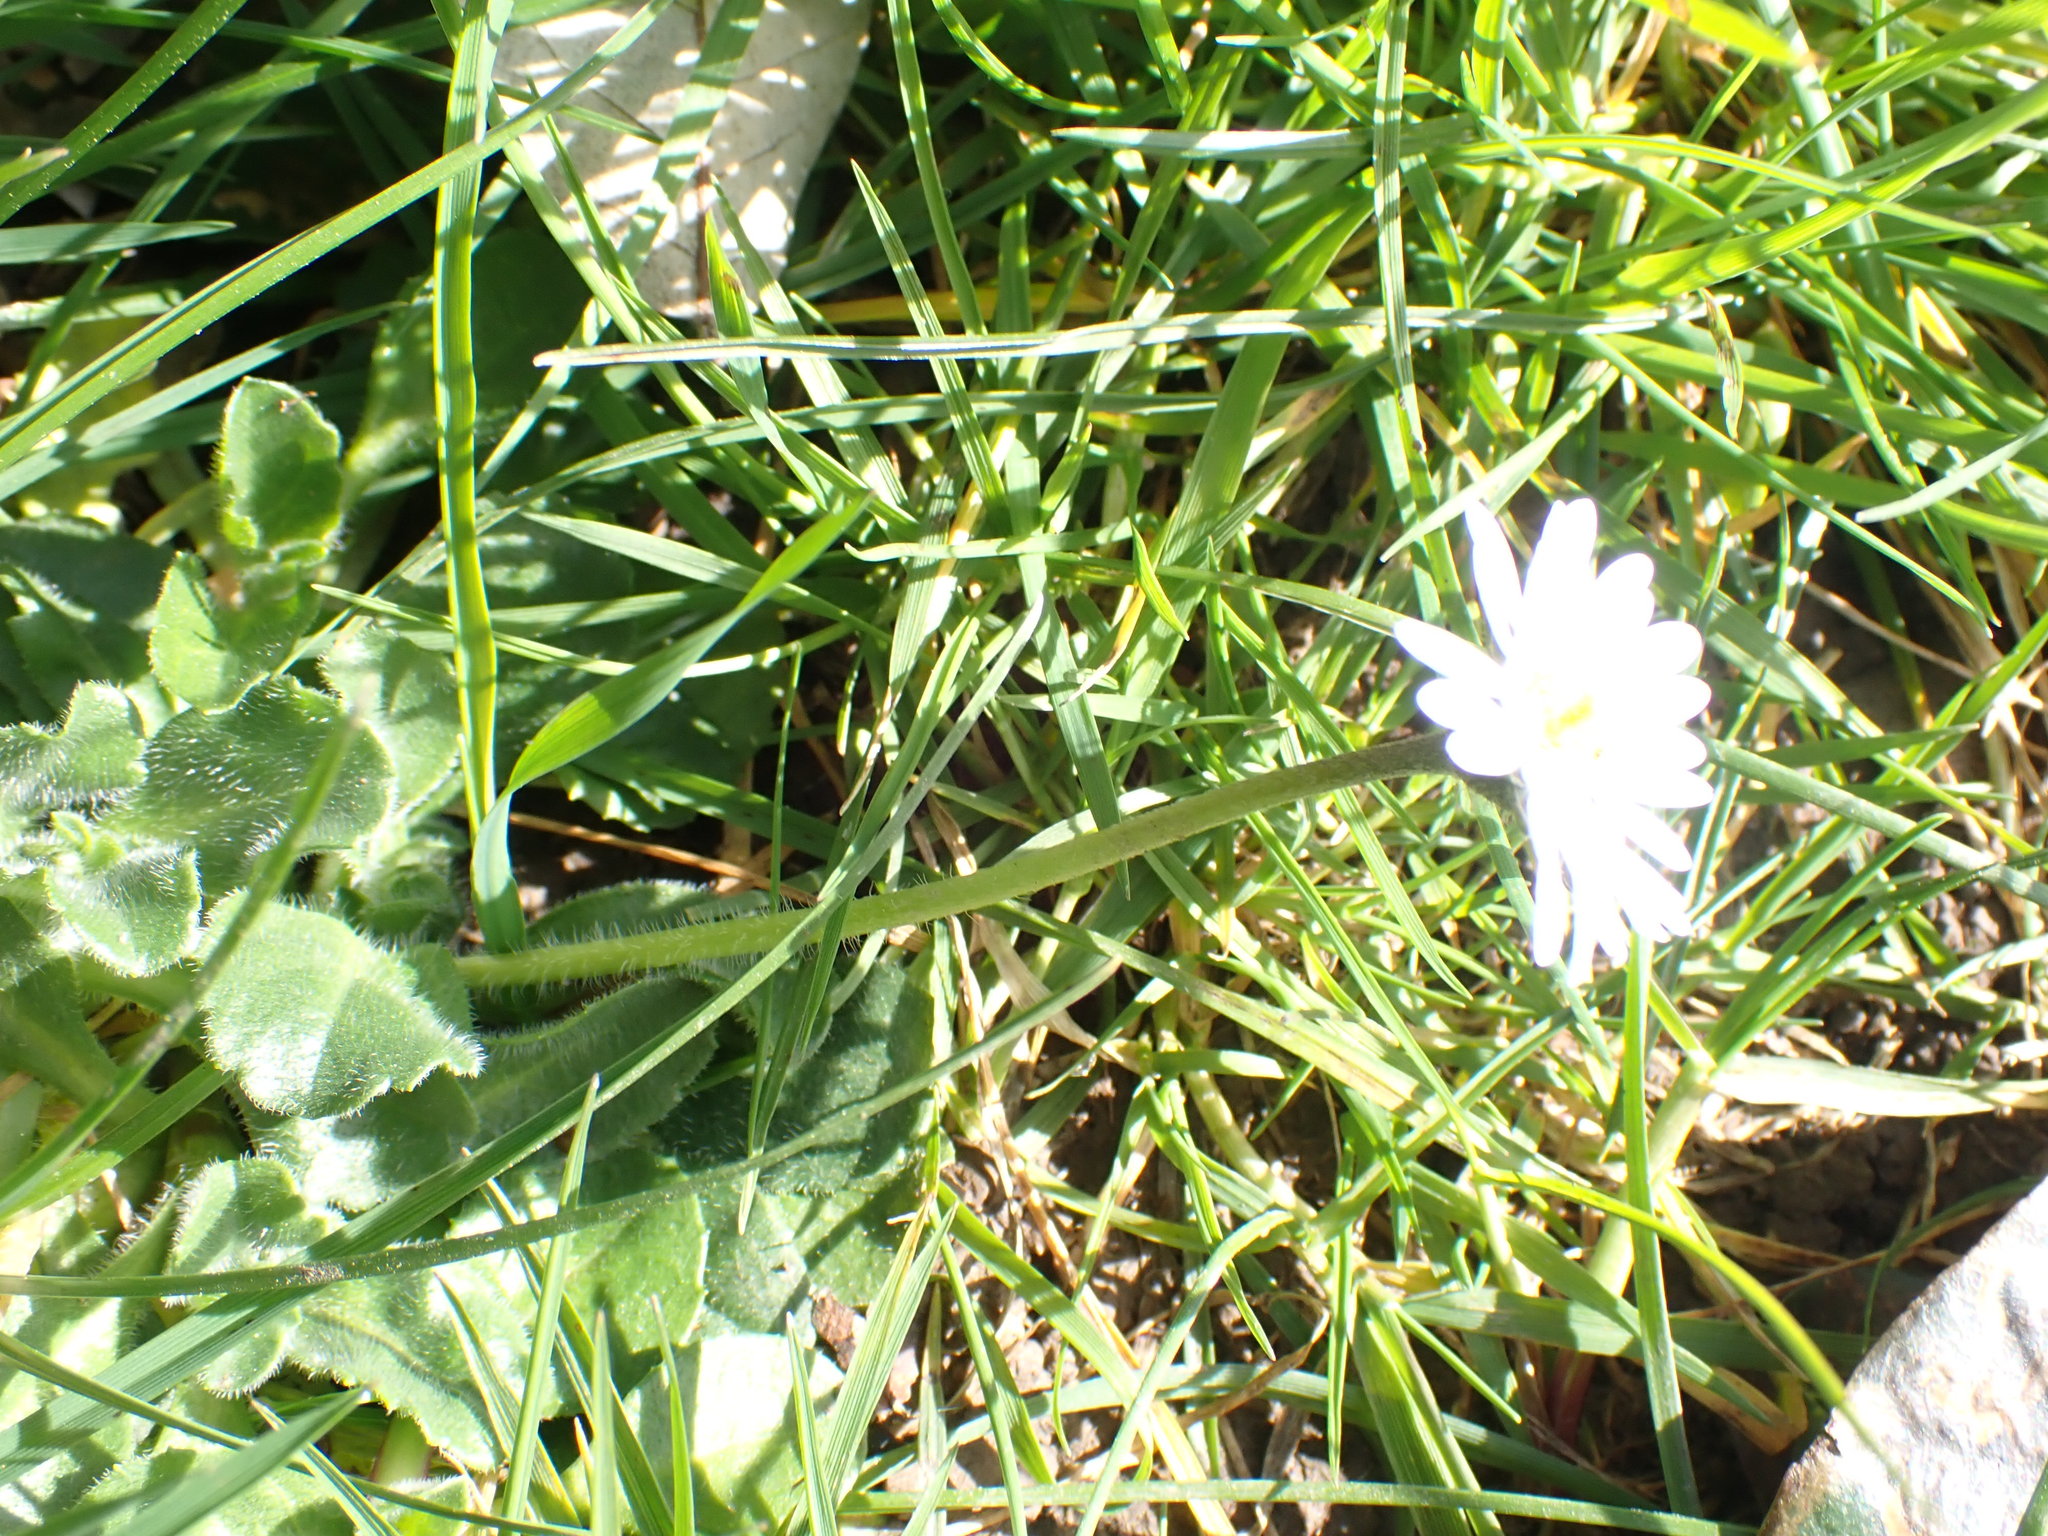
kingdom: Plantae
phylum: Tracheophyta
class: Magnoliopsida
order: Asterales
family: Asteraceae
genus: Bellis
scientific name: Bellis perennis
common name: Lawndaisy
